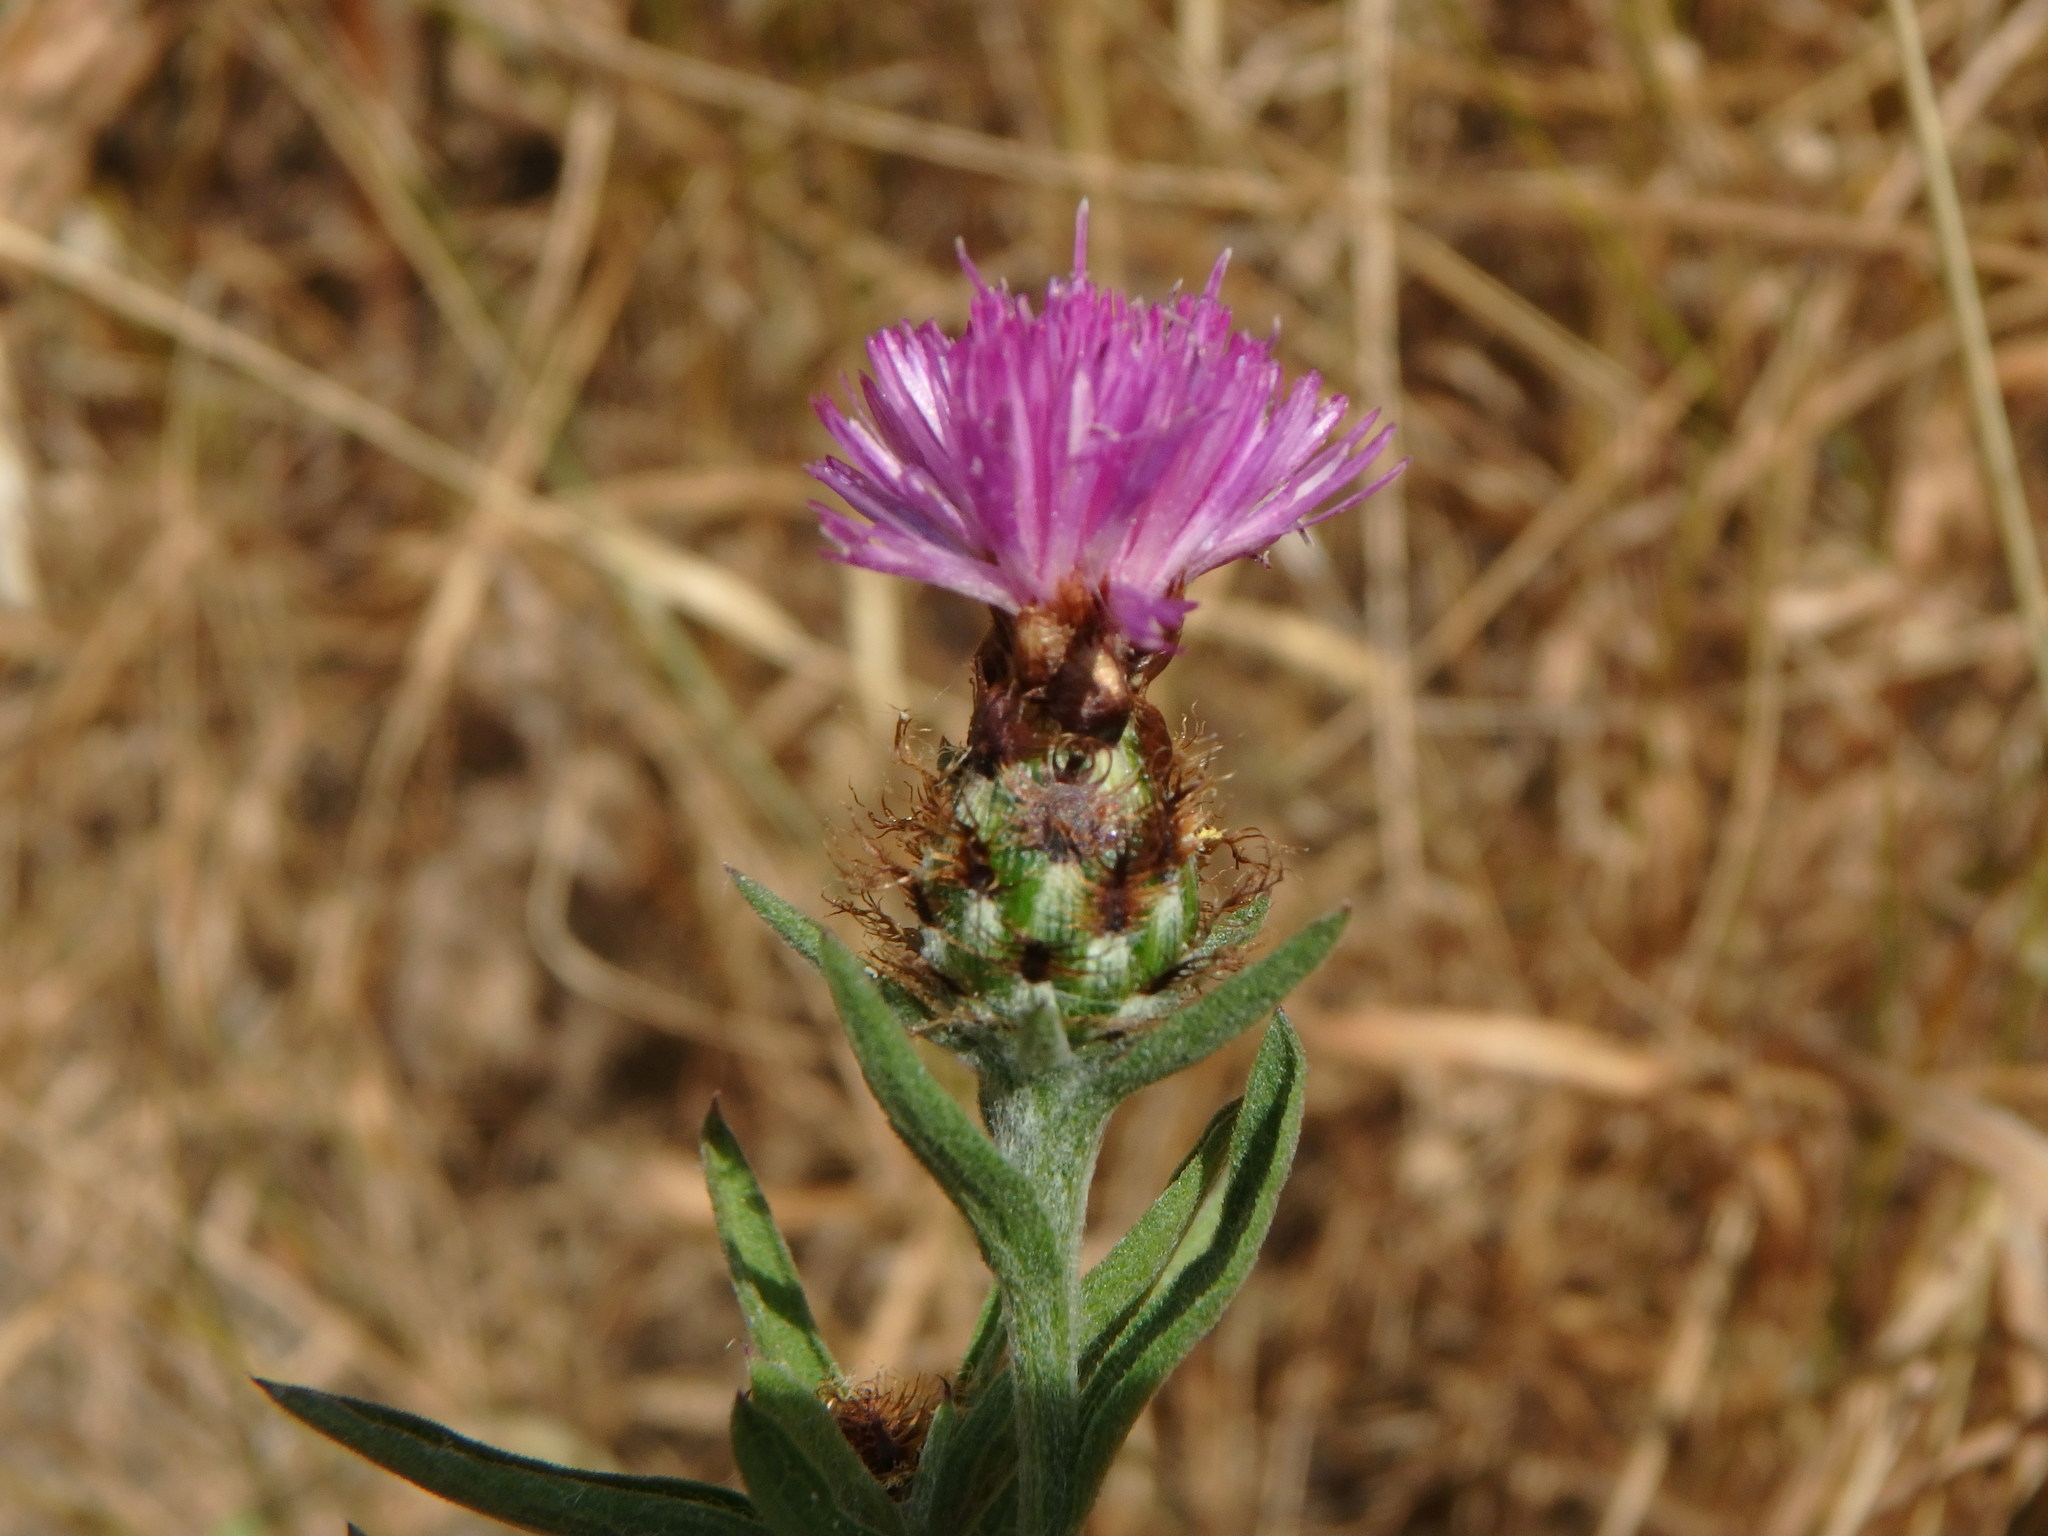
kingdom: Plantae
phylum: Tracheophyta
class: Magnoliopsida
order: Asterales
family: Asteraceae
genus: Centaurea
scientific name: Centaurea nigra
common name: Lesser knapweed
